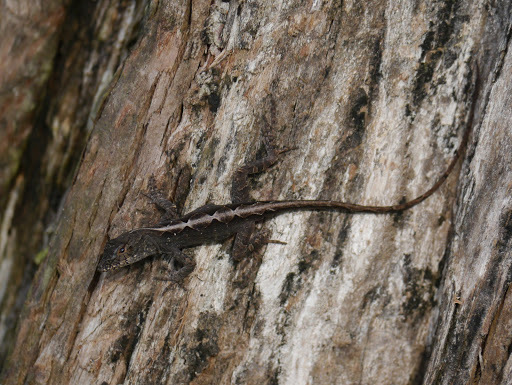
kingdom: Animalia
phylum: Chordata
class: Squamata
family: Dactyloidae
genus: Anolis
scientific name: Anolis sagrei
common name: Brown anole
